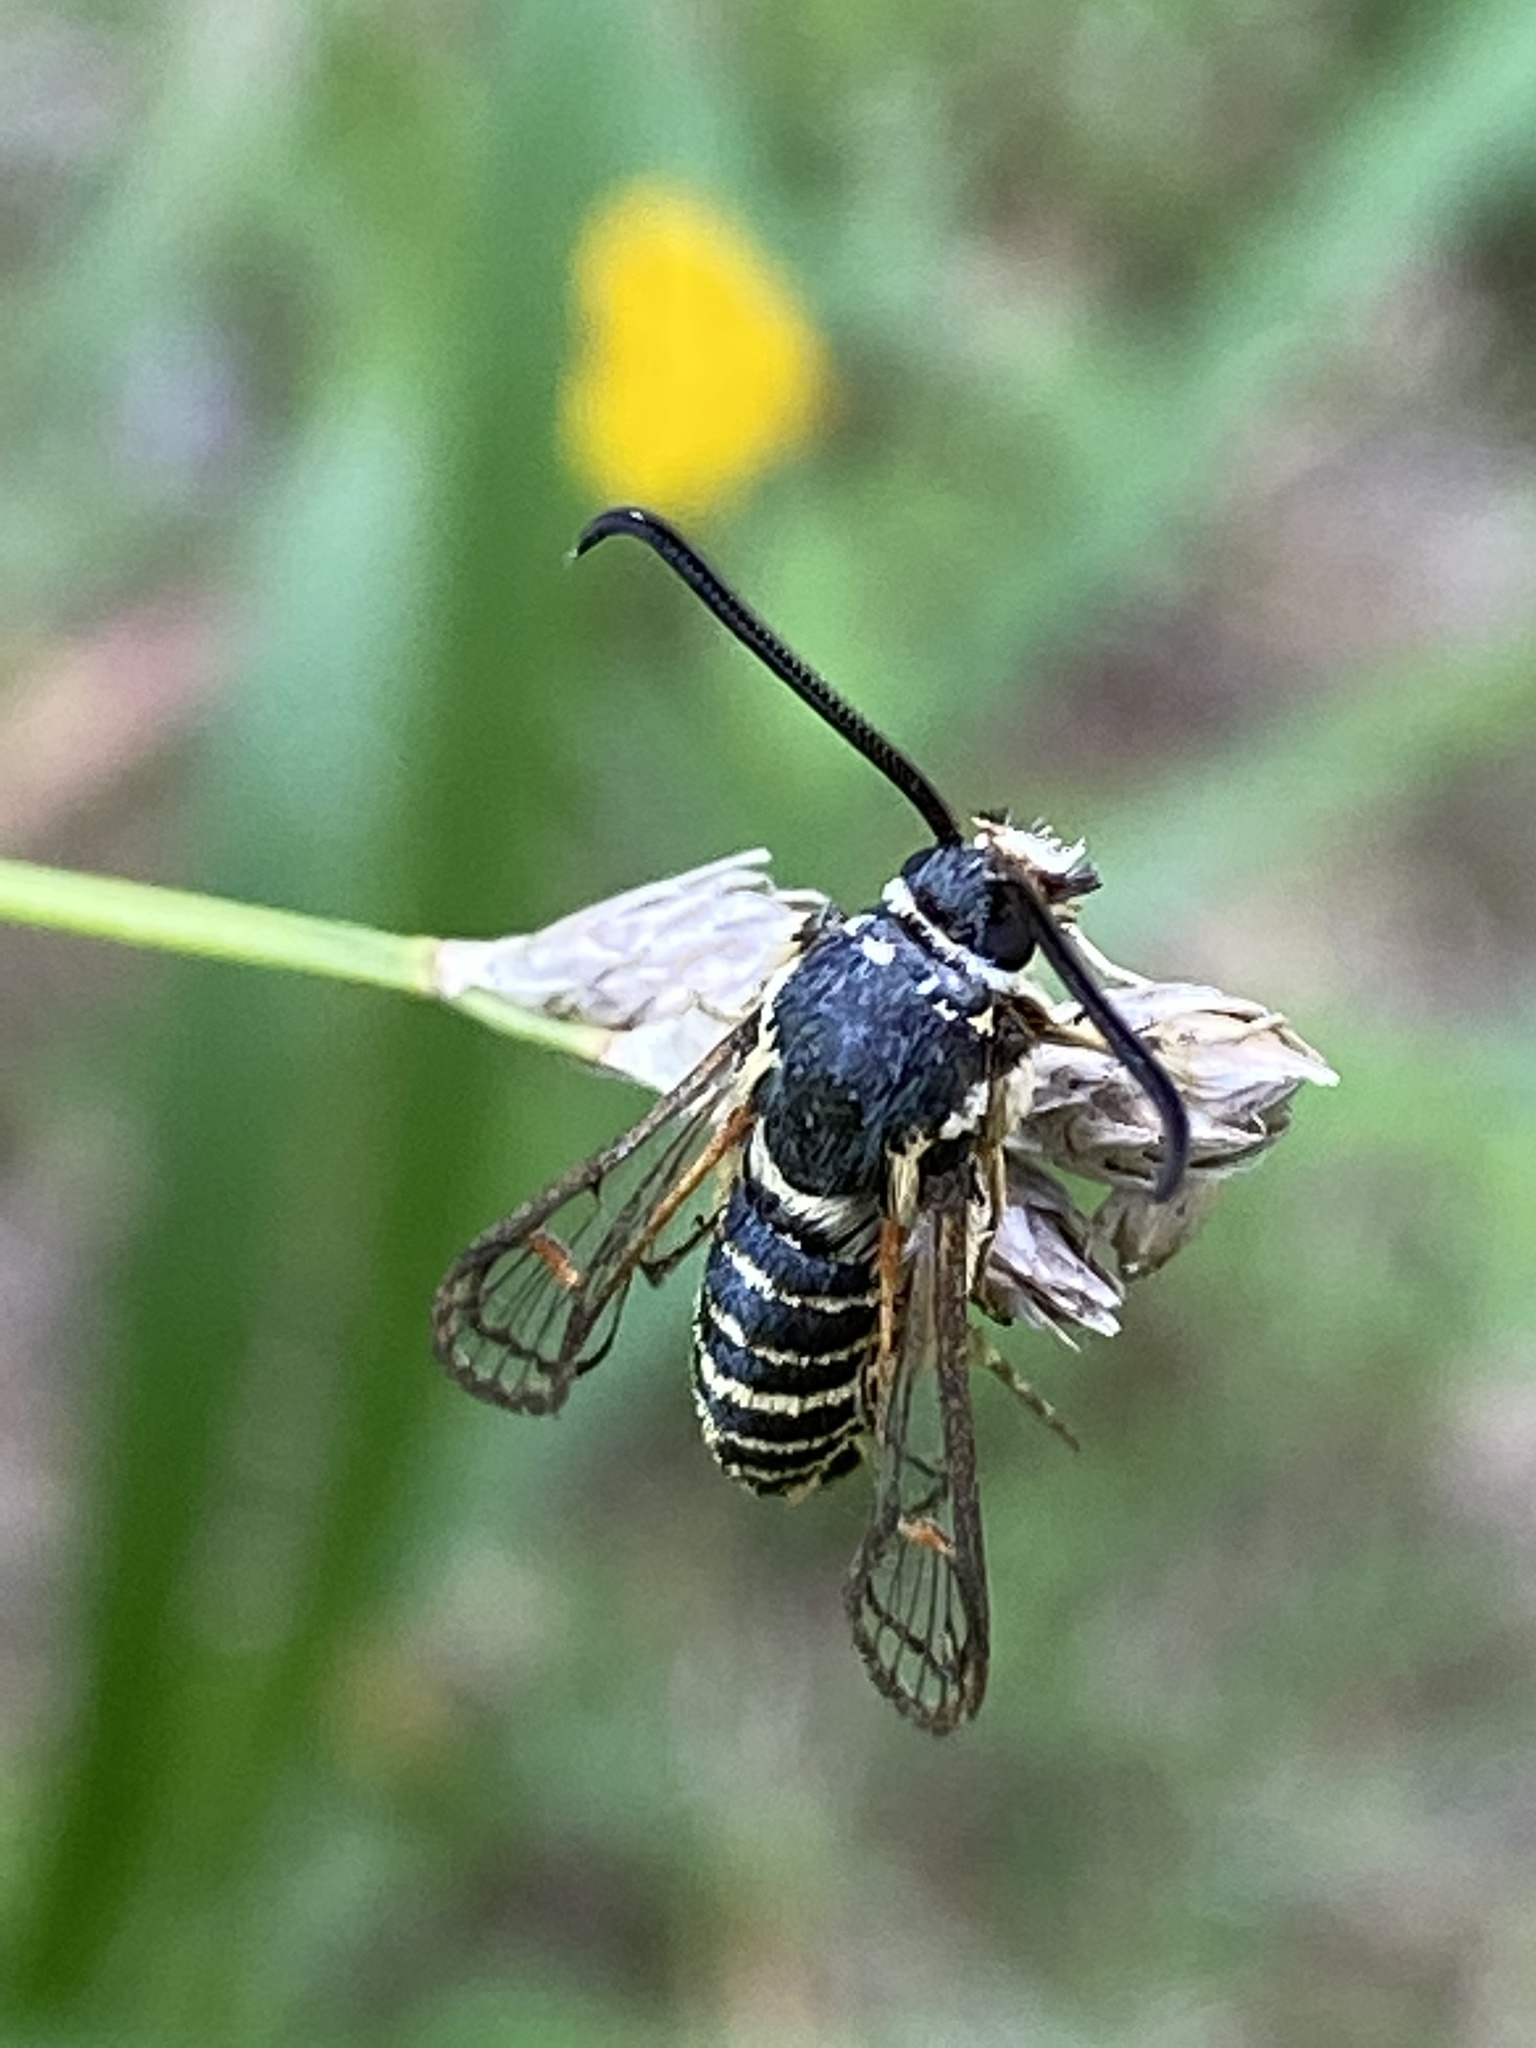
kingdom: Animalia
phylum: Arthropoda
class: Insecta
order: Lepidoptera
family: Sesiidae
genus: Synanthedon
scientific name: Synanthedon rileyana
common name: Riley's clearwing moth
